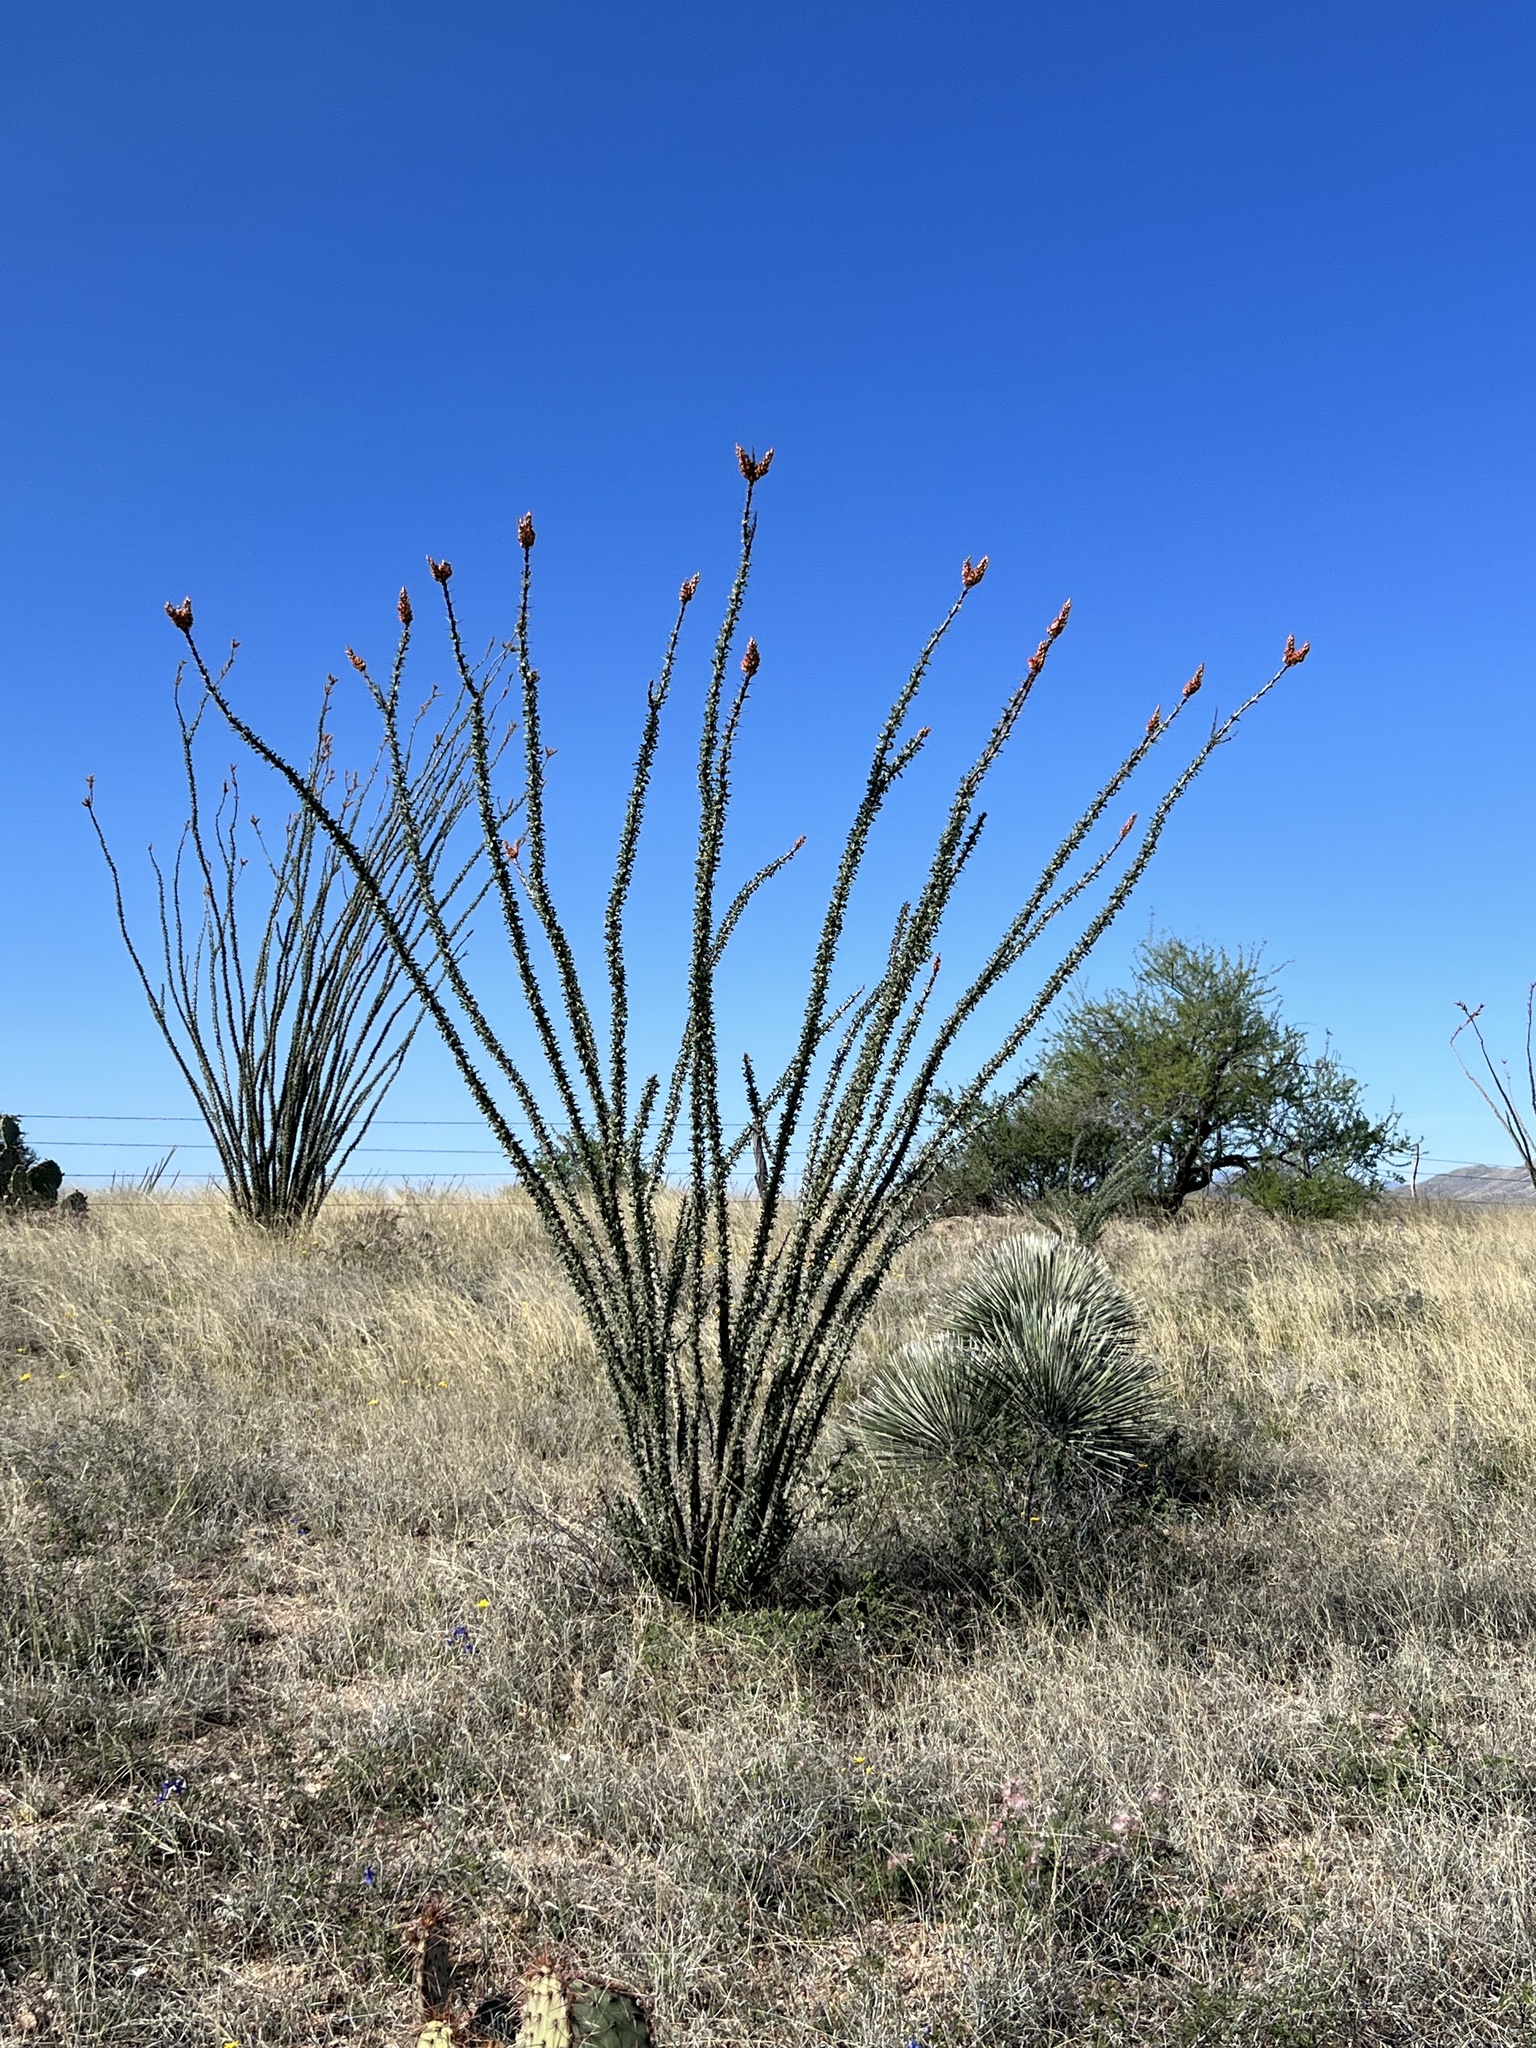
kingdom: Plantae
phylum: Tracheophyta
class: Magnoliopsida
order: Ericales
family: Fouquieriaceae
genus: Fouquieria
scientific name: Fouquieria splendens
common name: Vine-cactus
